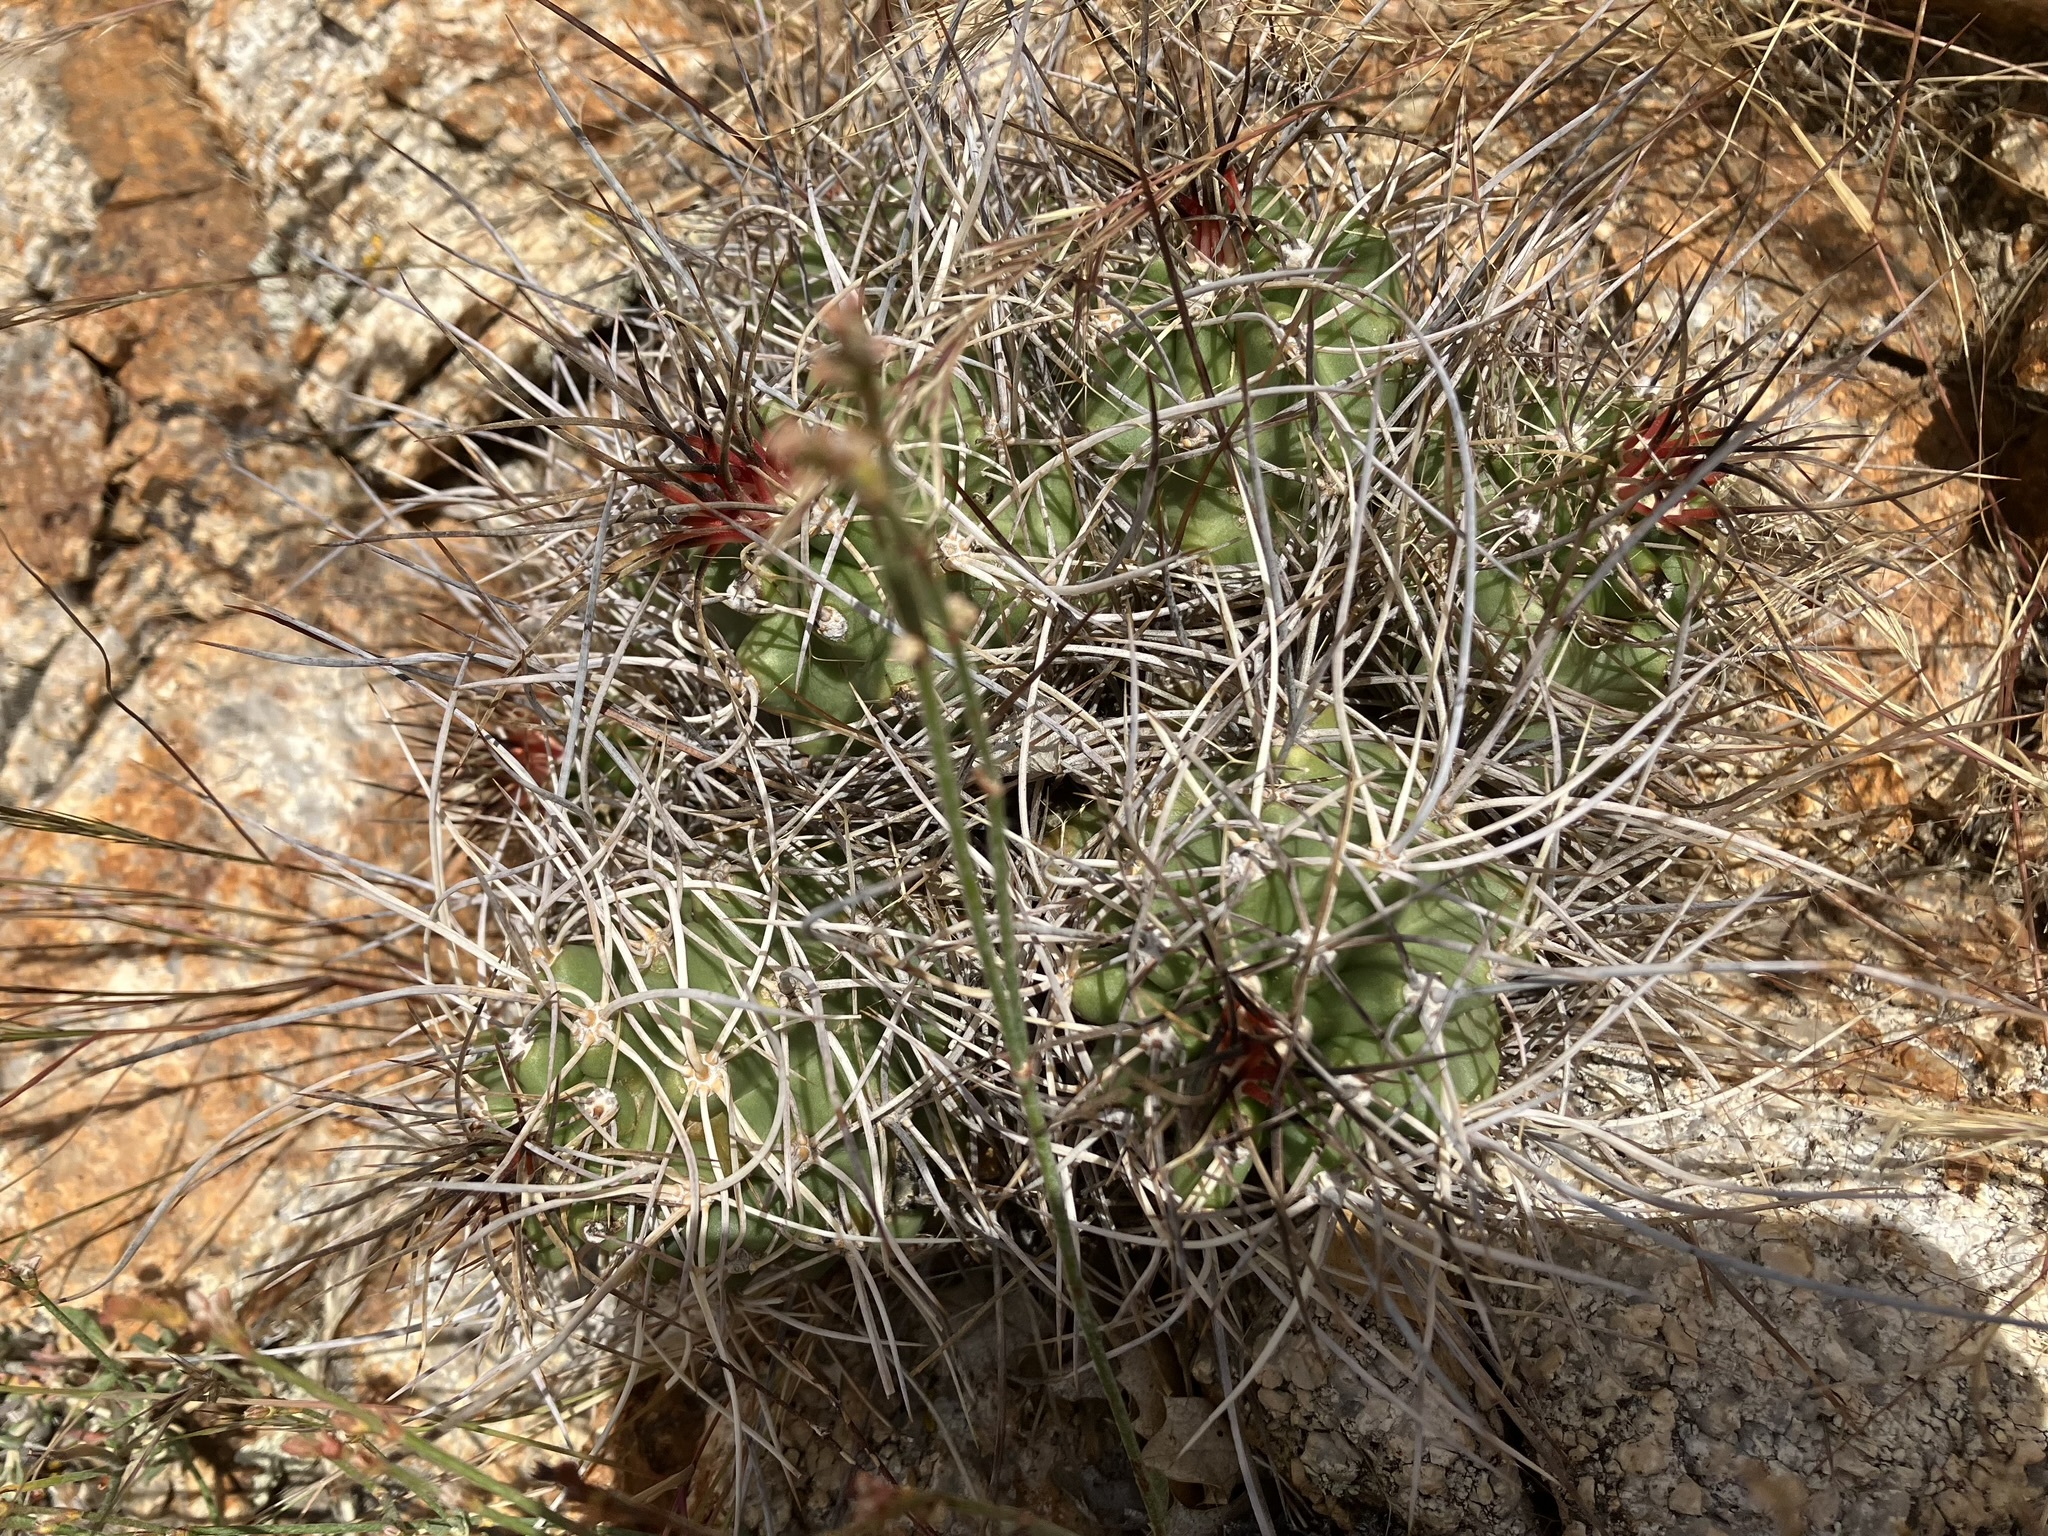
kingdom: Plantae
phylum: Tracheophyta
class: Magnoliopsida
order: Caryophyllales
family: Cactaceae
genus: Echinocereus
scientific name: Echinocereus triglochidiatus
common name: Claretcup hedgehog
